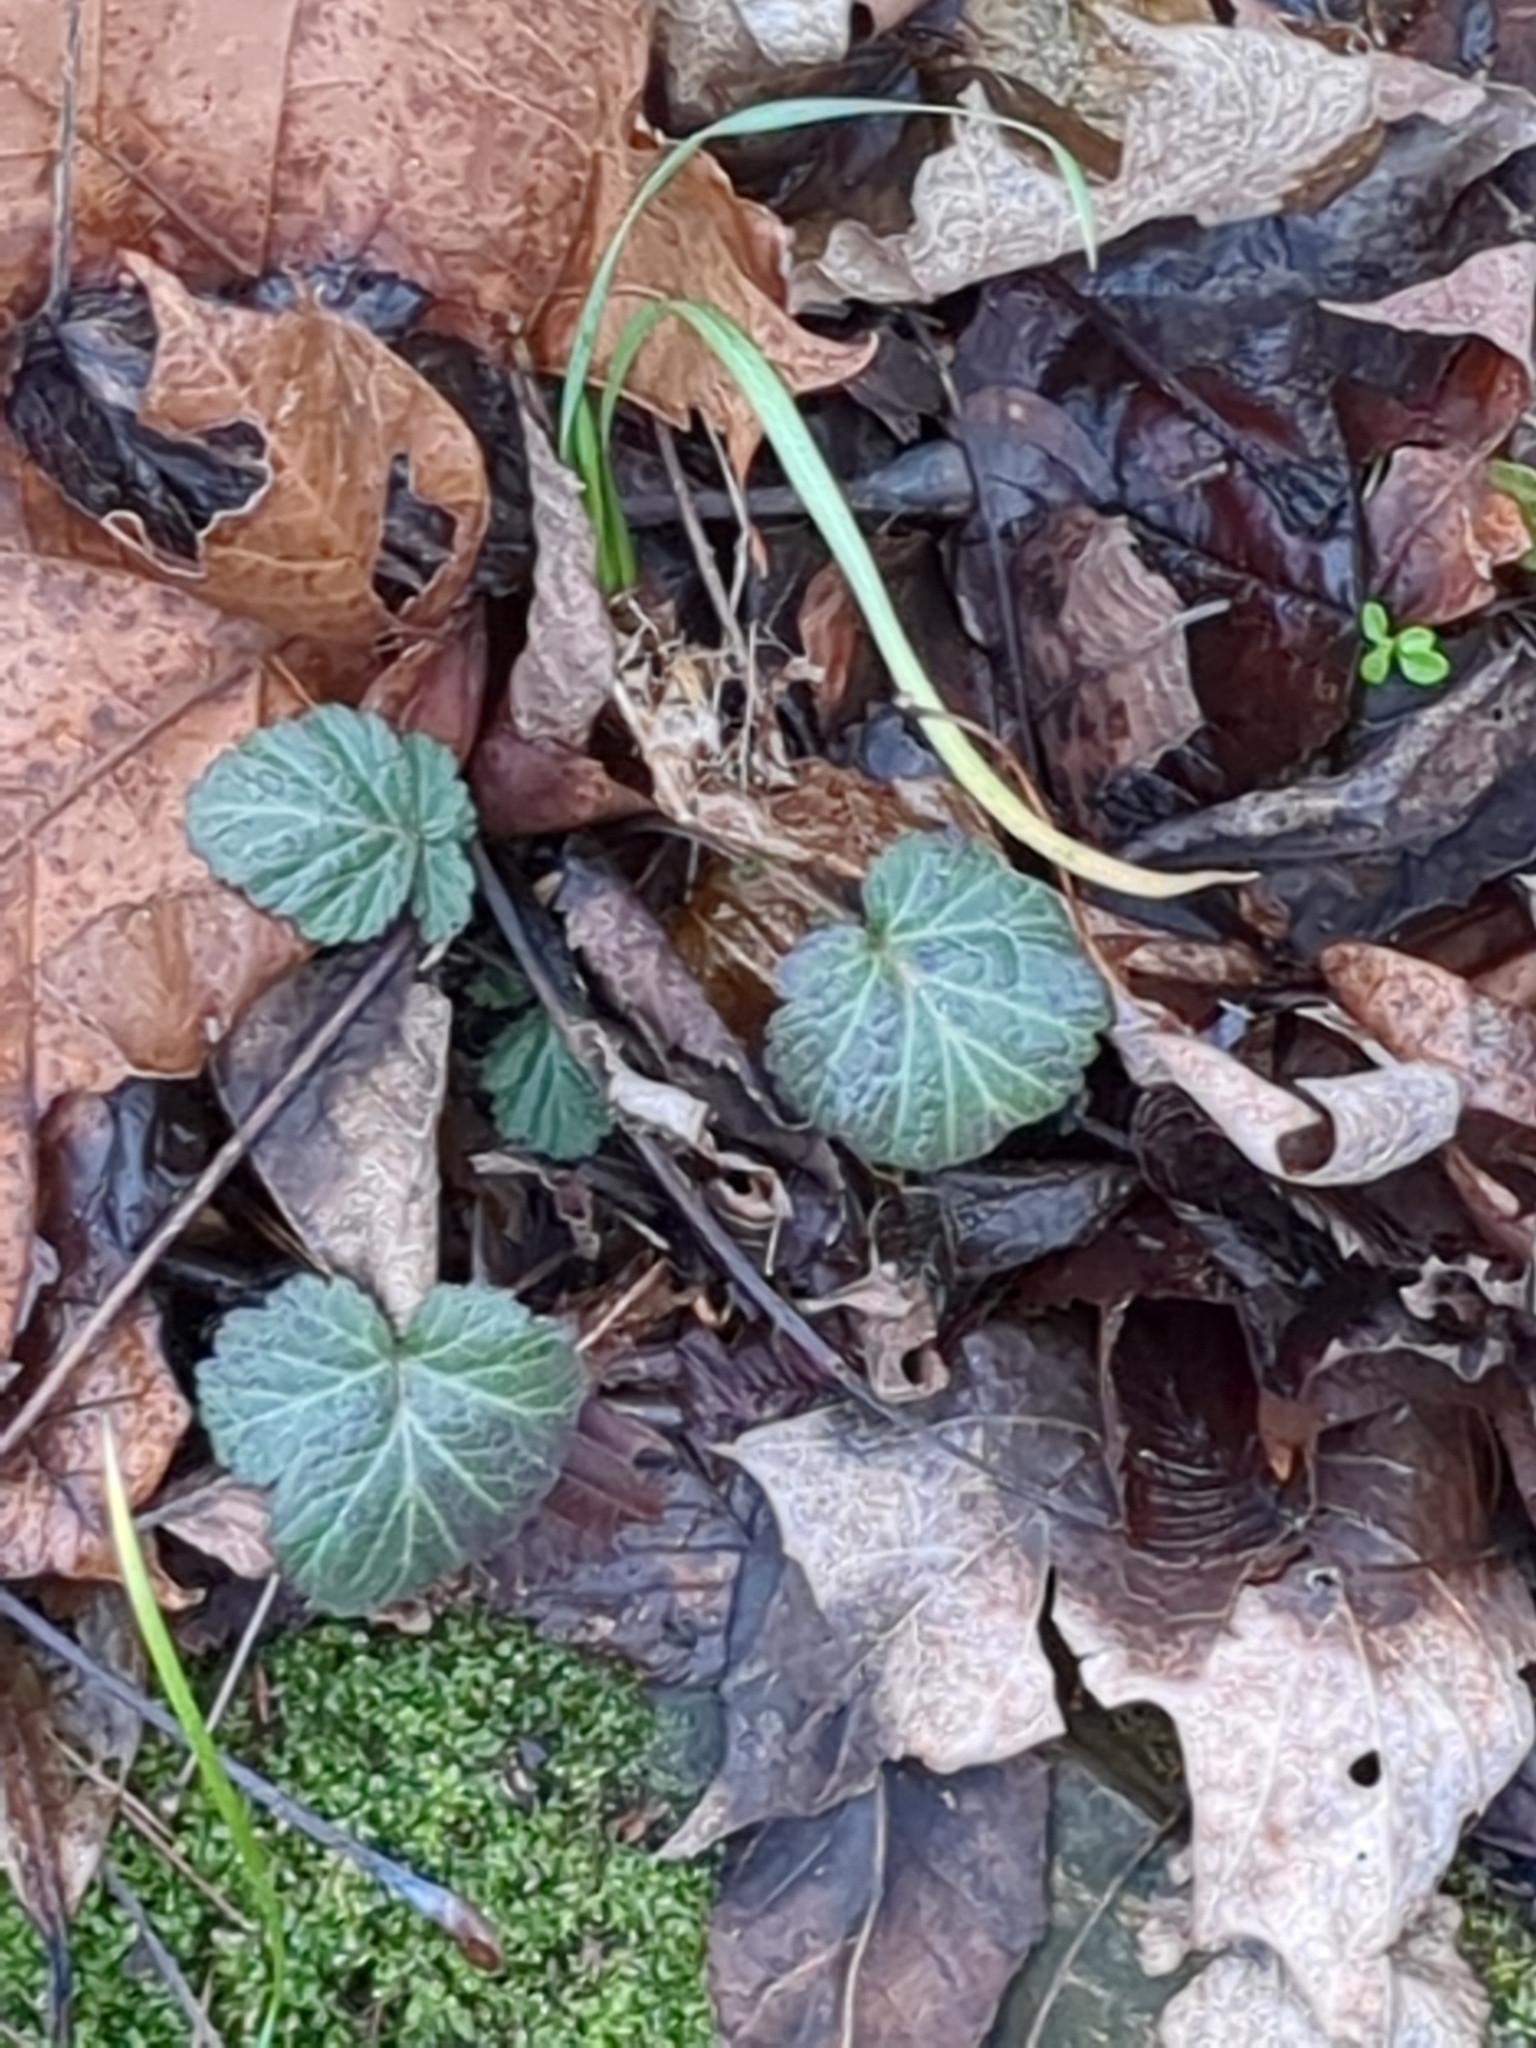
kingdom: Plantae
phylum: Tracheophyta
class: Magnoliopsida
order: Rosales
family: Rosaceae
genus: Geum
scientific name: Geum canadense
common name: White avens
